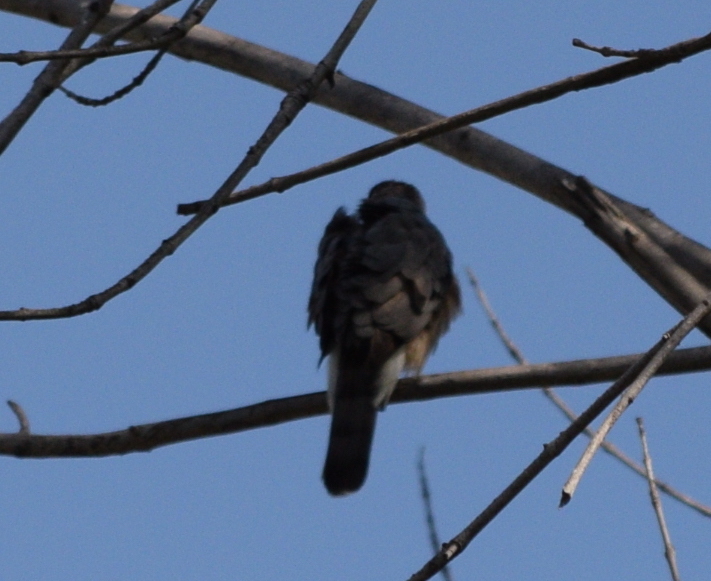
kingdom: Animalia
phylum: Chordata
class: Aves
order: Accipitriformes
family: Accipitridae
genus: Accipiter
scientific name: Accipiter cooperii
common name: Cooper's hawk
